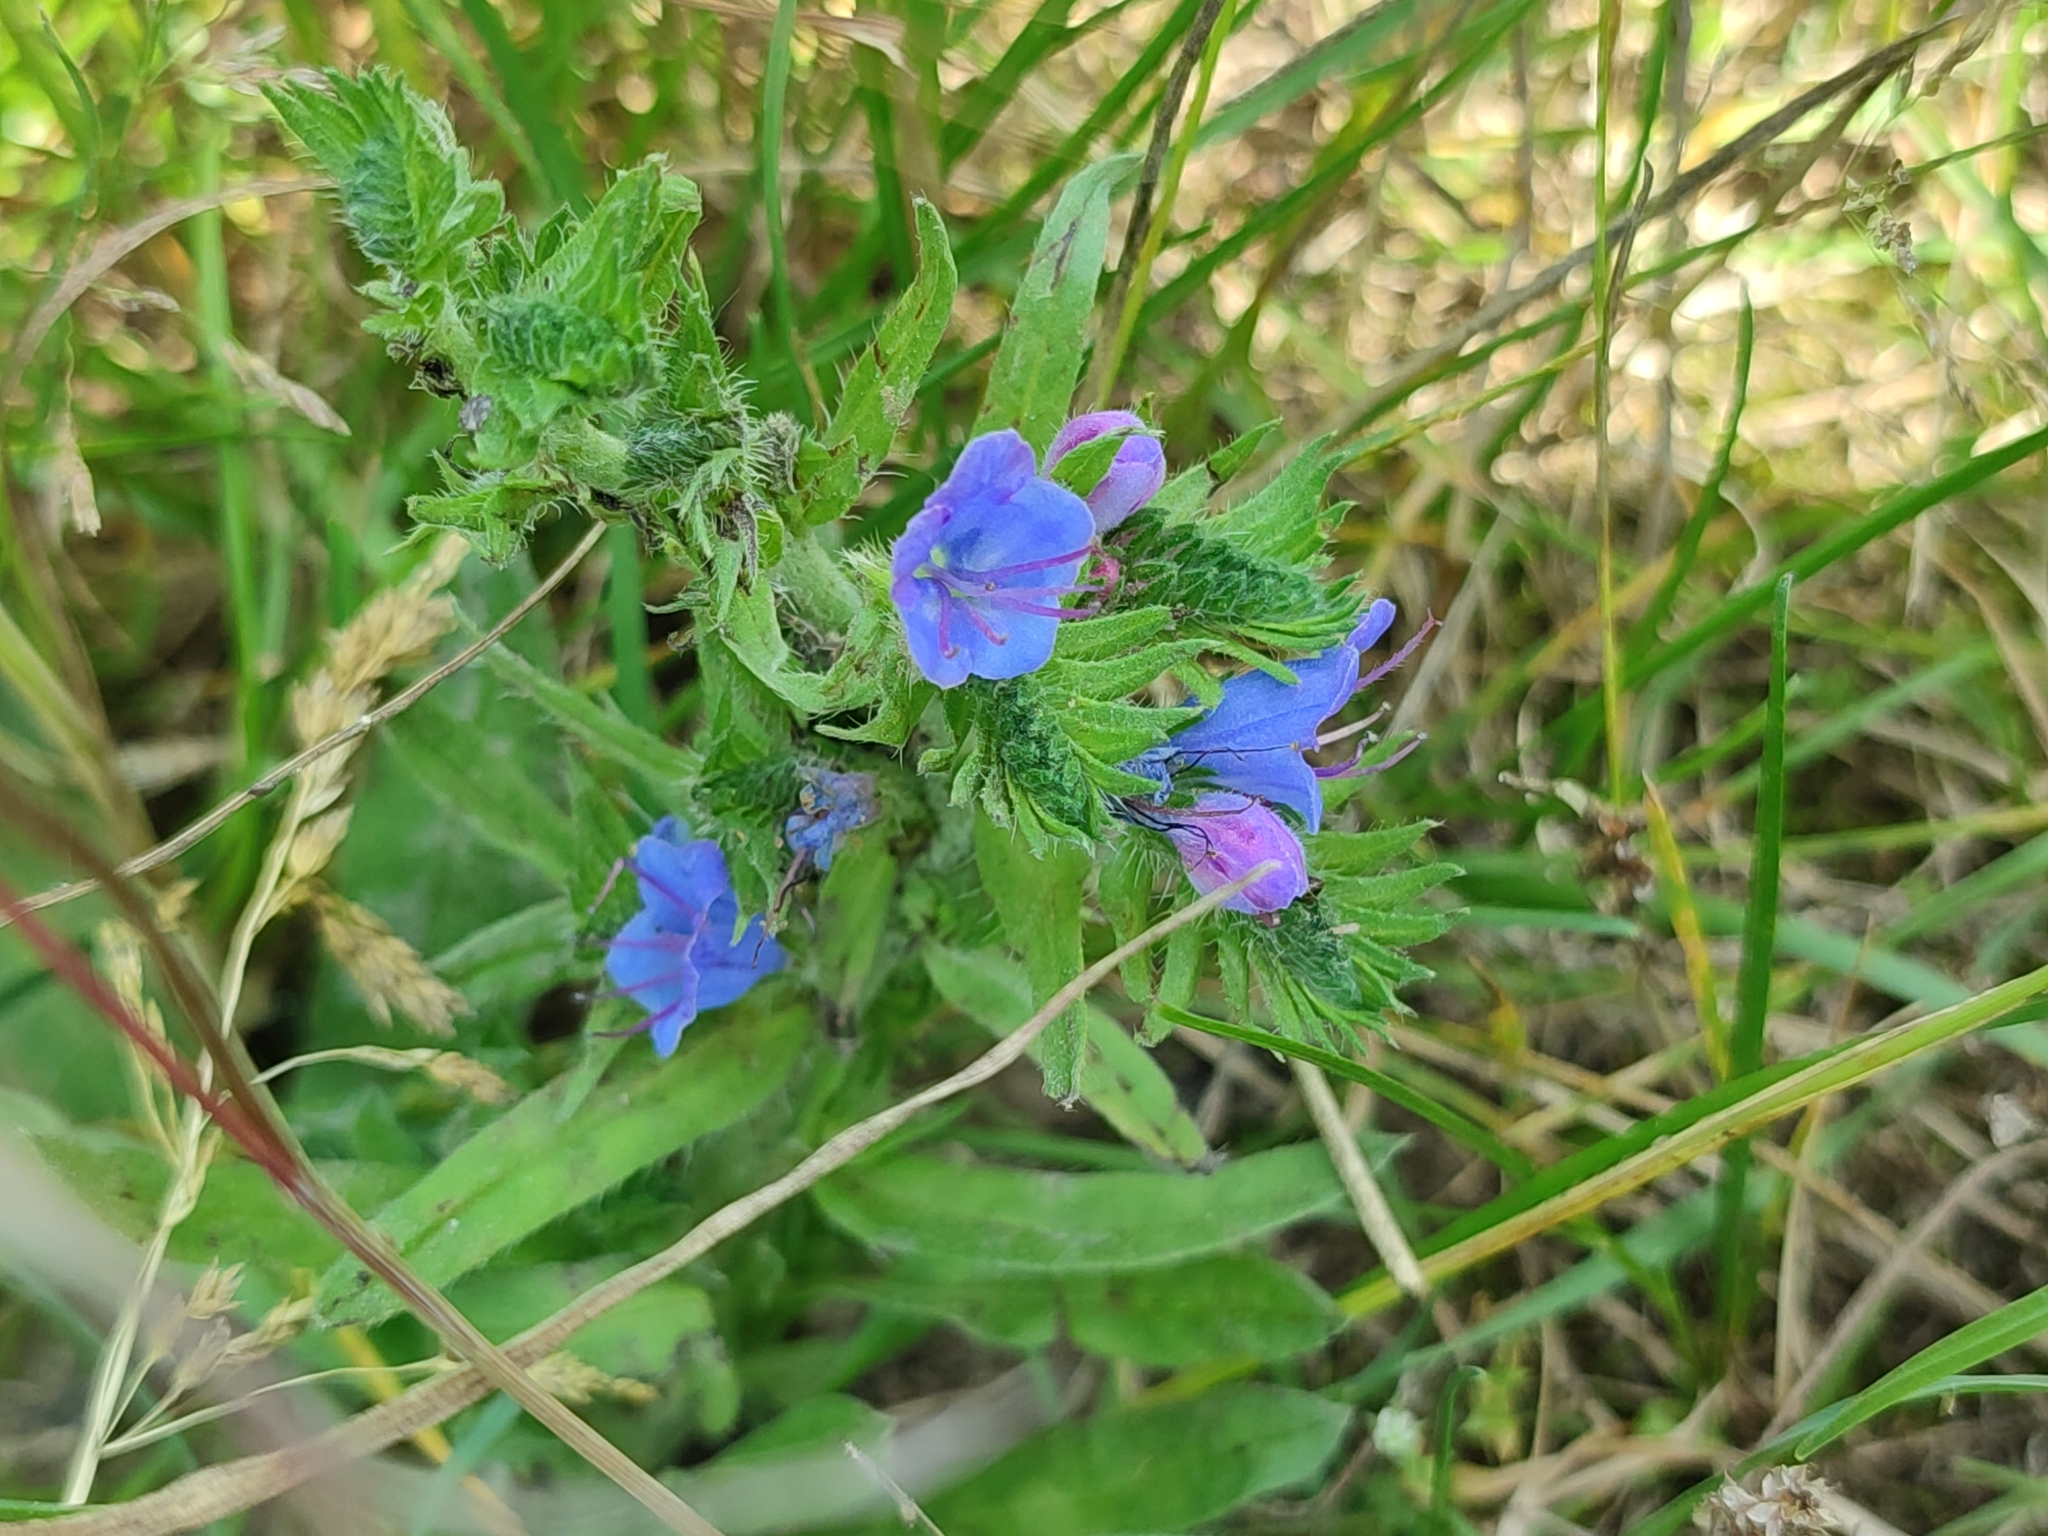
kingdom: Plantae
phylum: Tracheophyta
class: Magnoliopsida
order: Boraginales
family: Boraginaceae
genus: Echium
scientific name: Echium vulgare
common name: Common viper's bugloss
